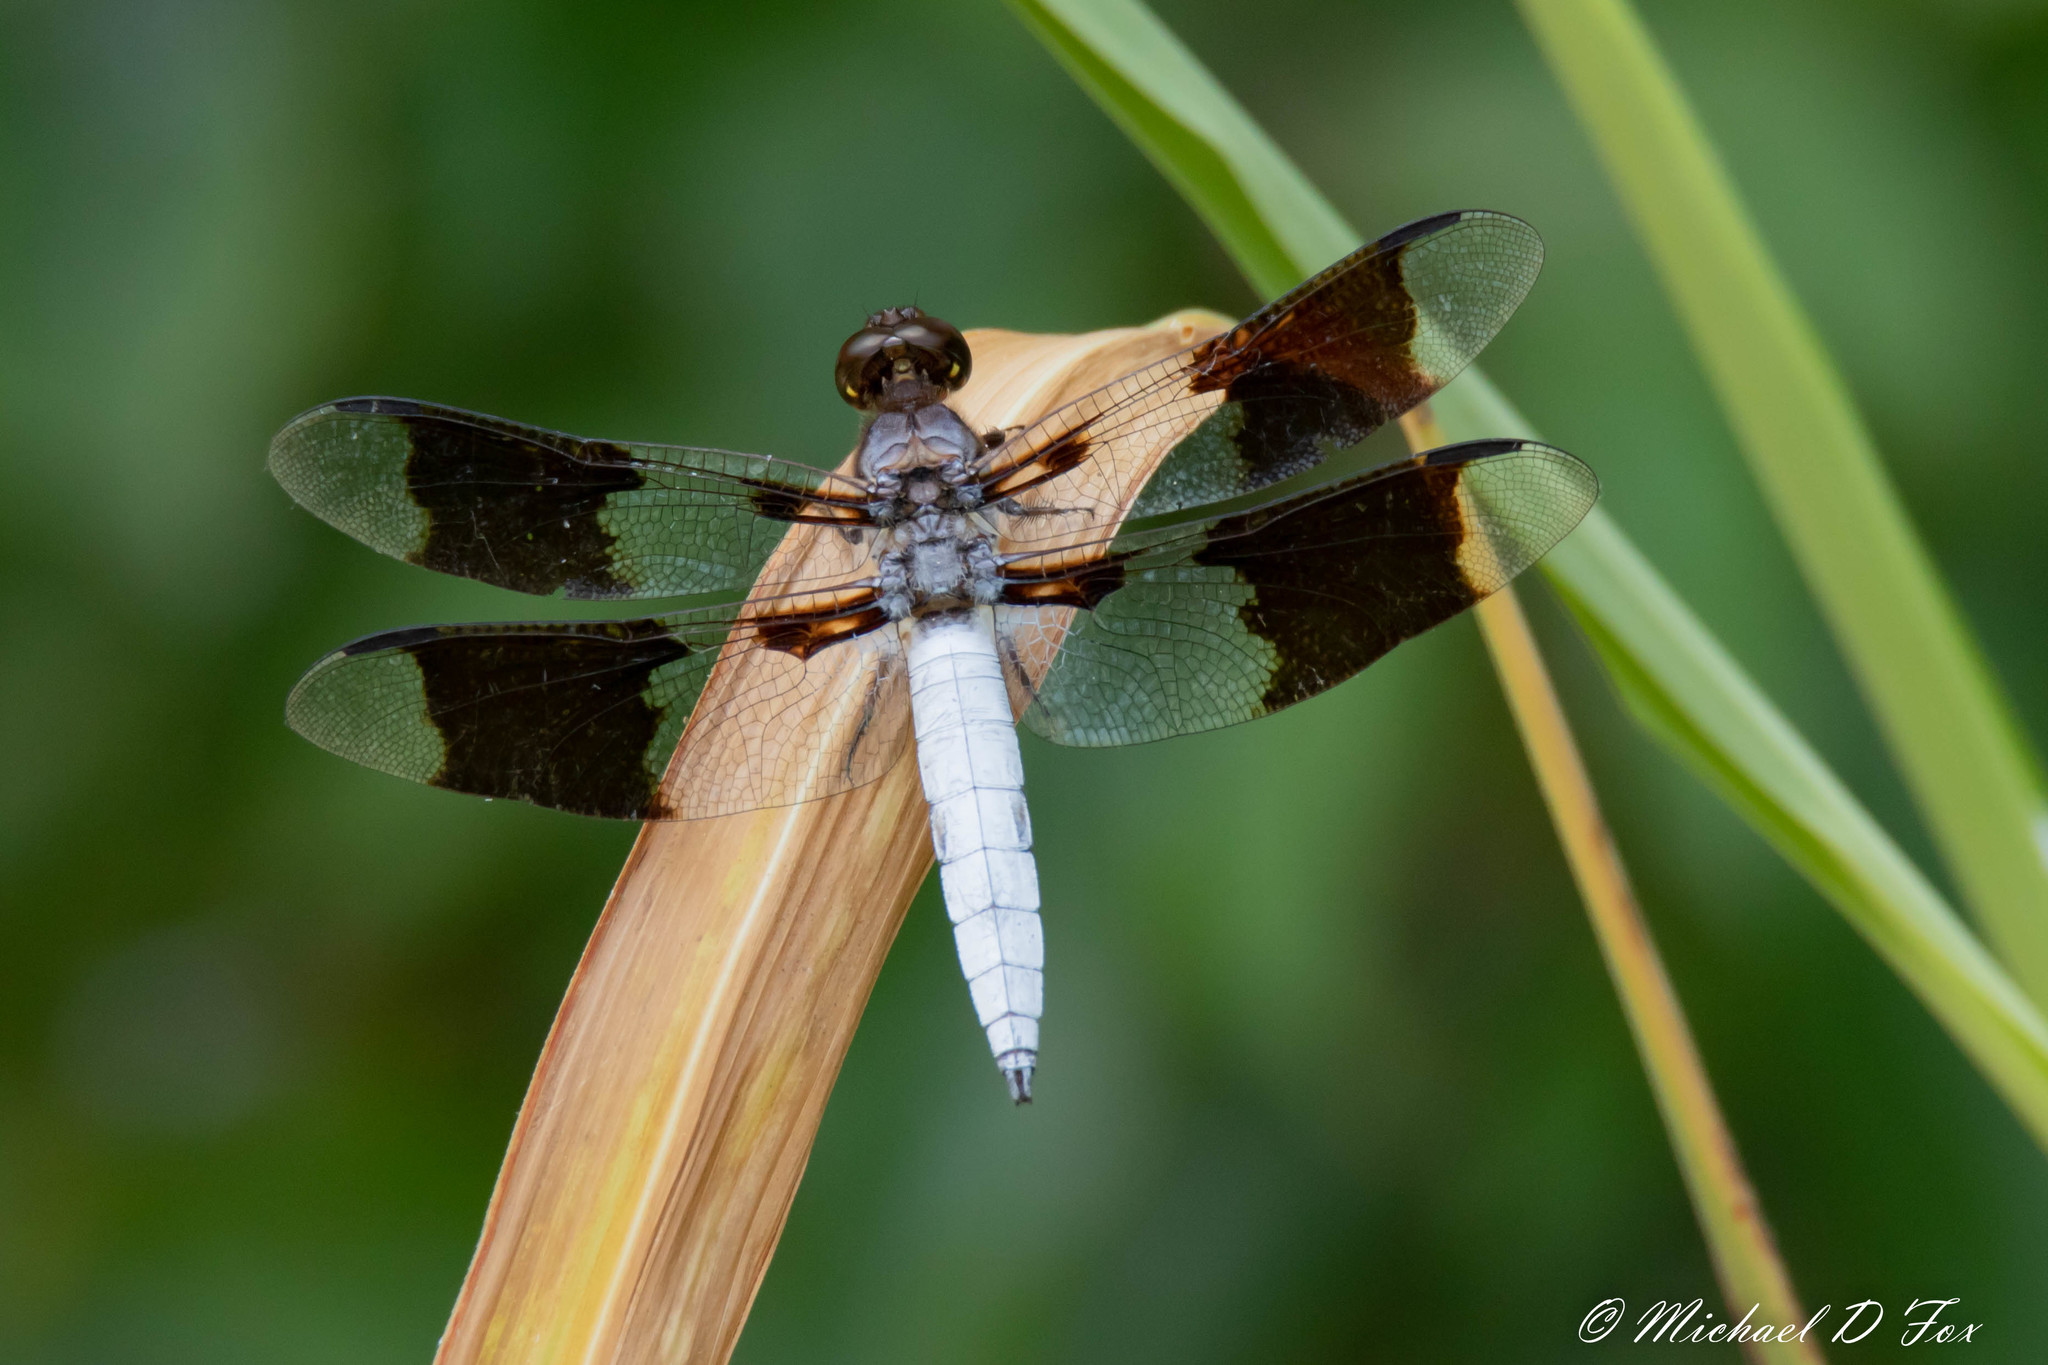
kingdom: Animalia
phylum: Arthropoda
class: Insecta
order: Odonata
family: Libellulidae
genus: Plathemis
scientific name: Plathemis lydia
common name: Common whitetail
